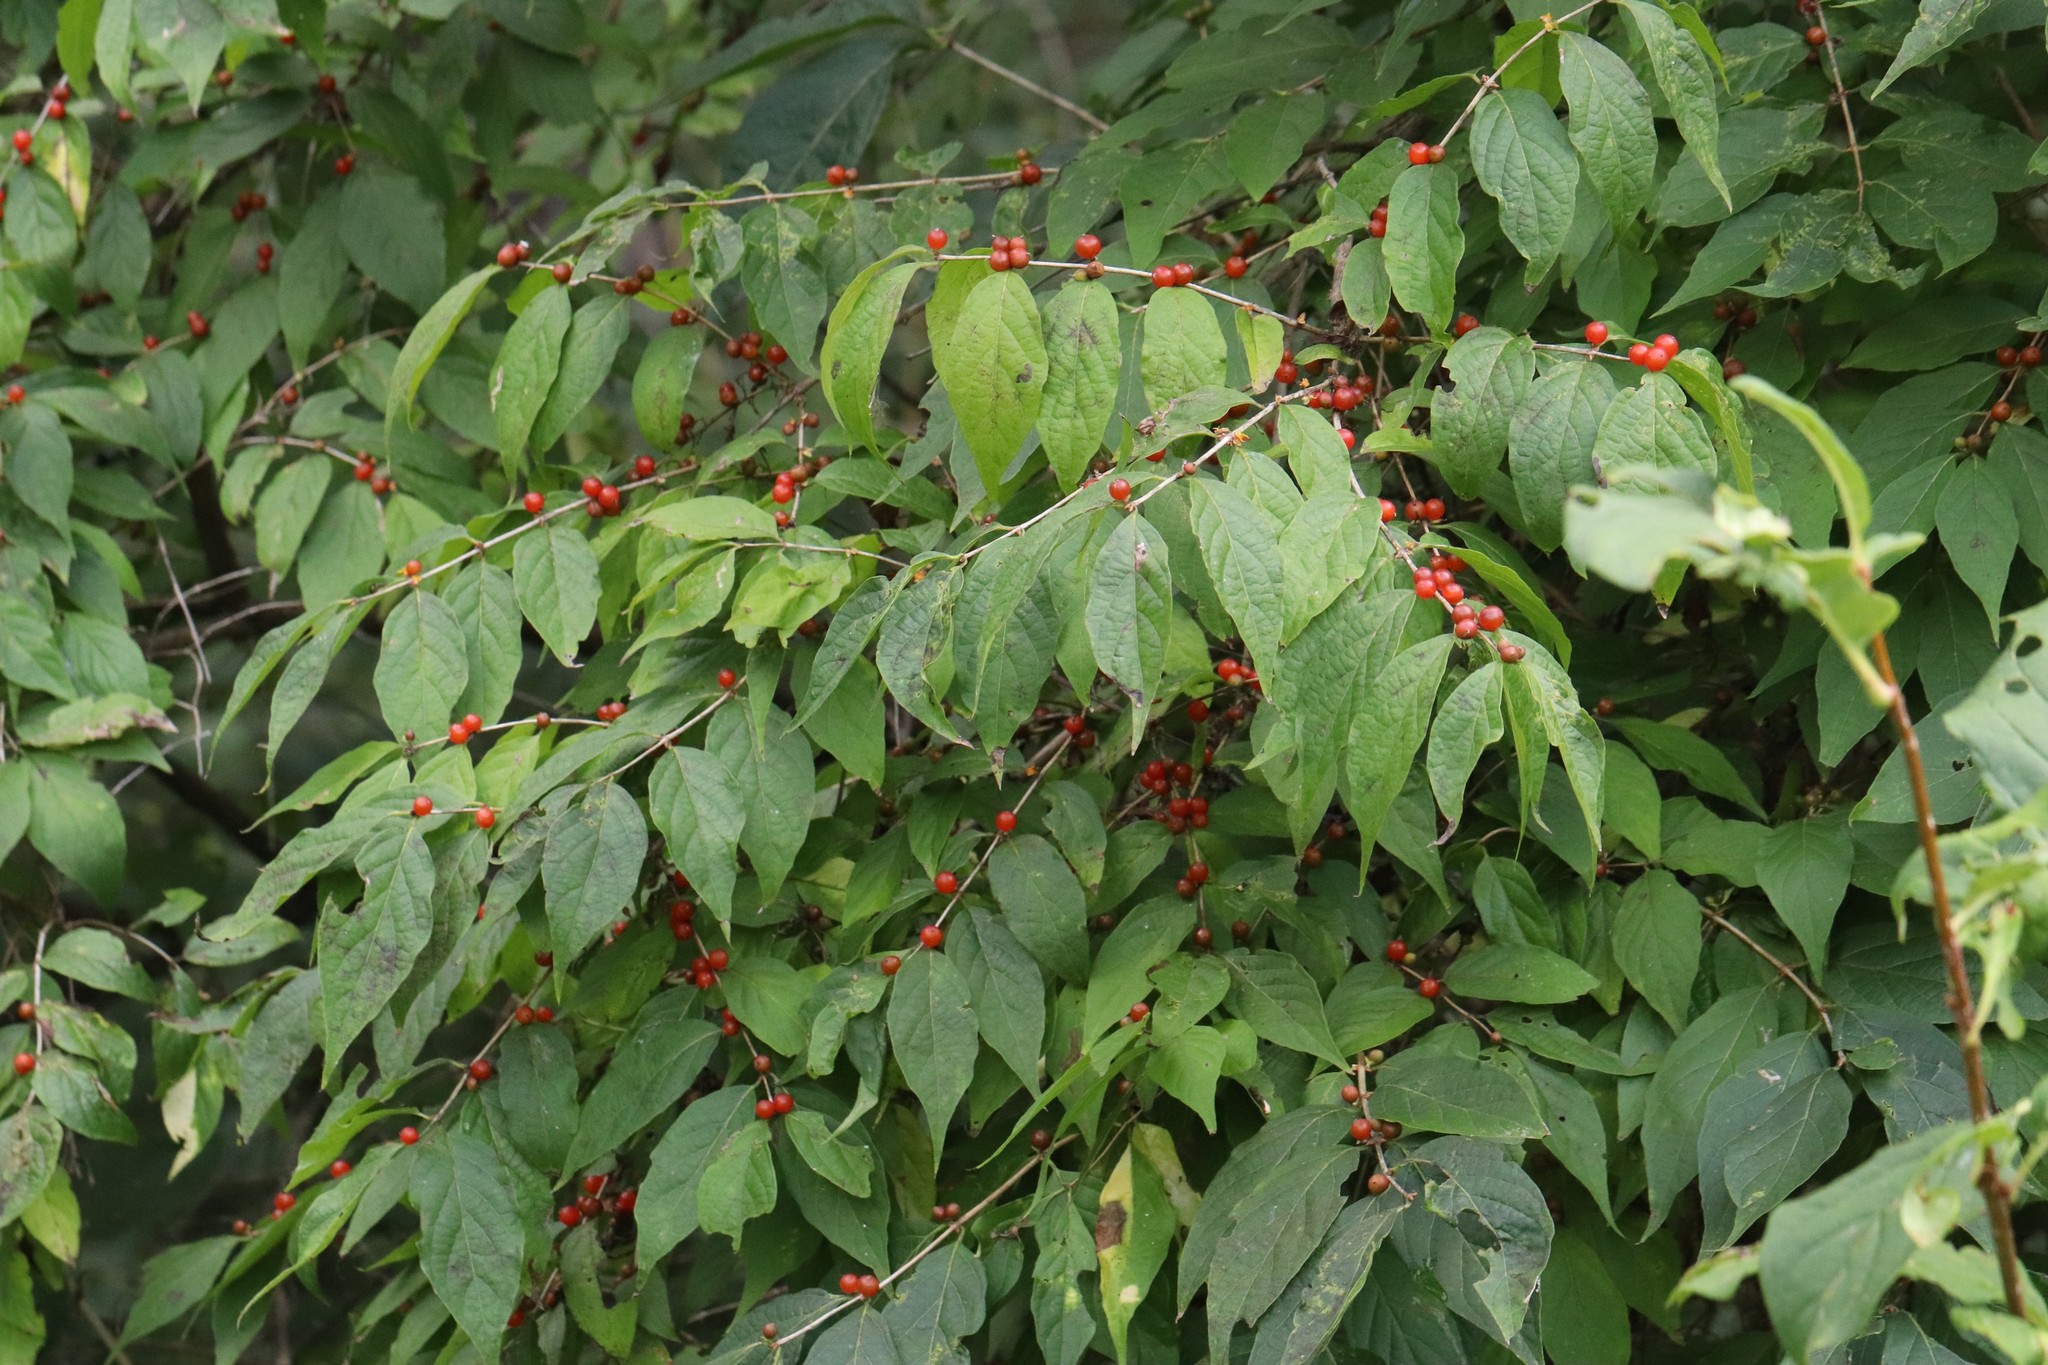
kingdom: Plantae
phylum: Tracheophyta
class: Magnoliopsida
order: Dipsacales
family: Caprifoliaceae
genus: Lonicera
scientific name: Lonicera maackii
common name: Amur honeysuckle
